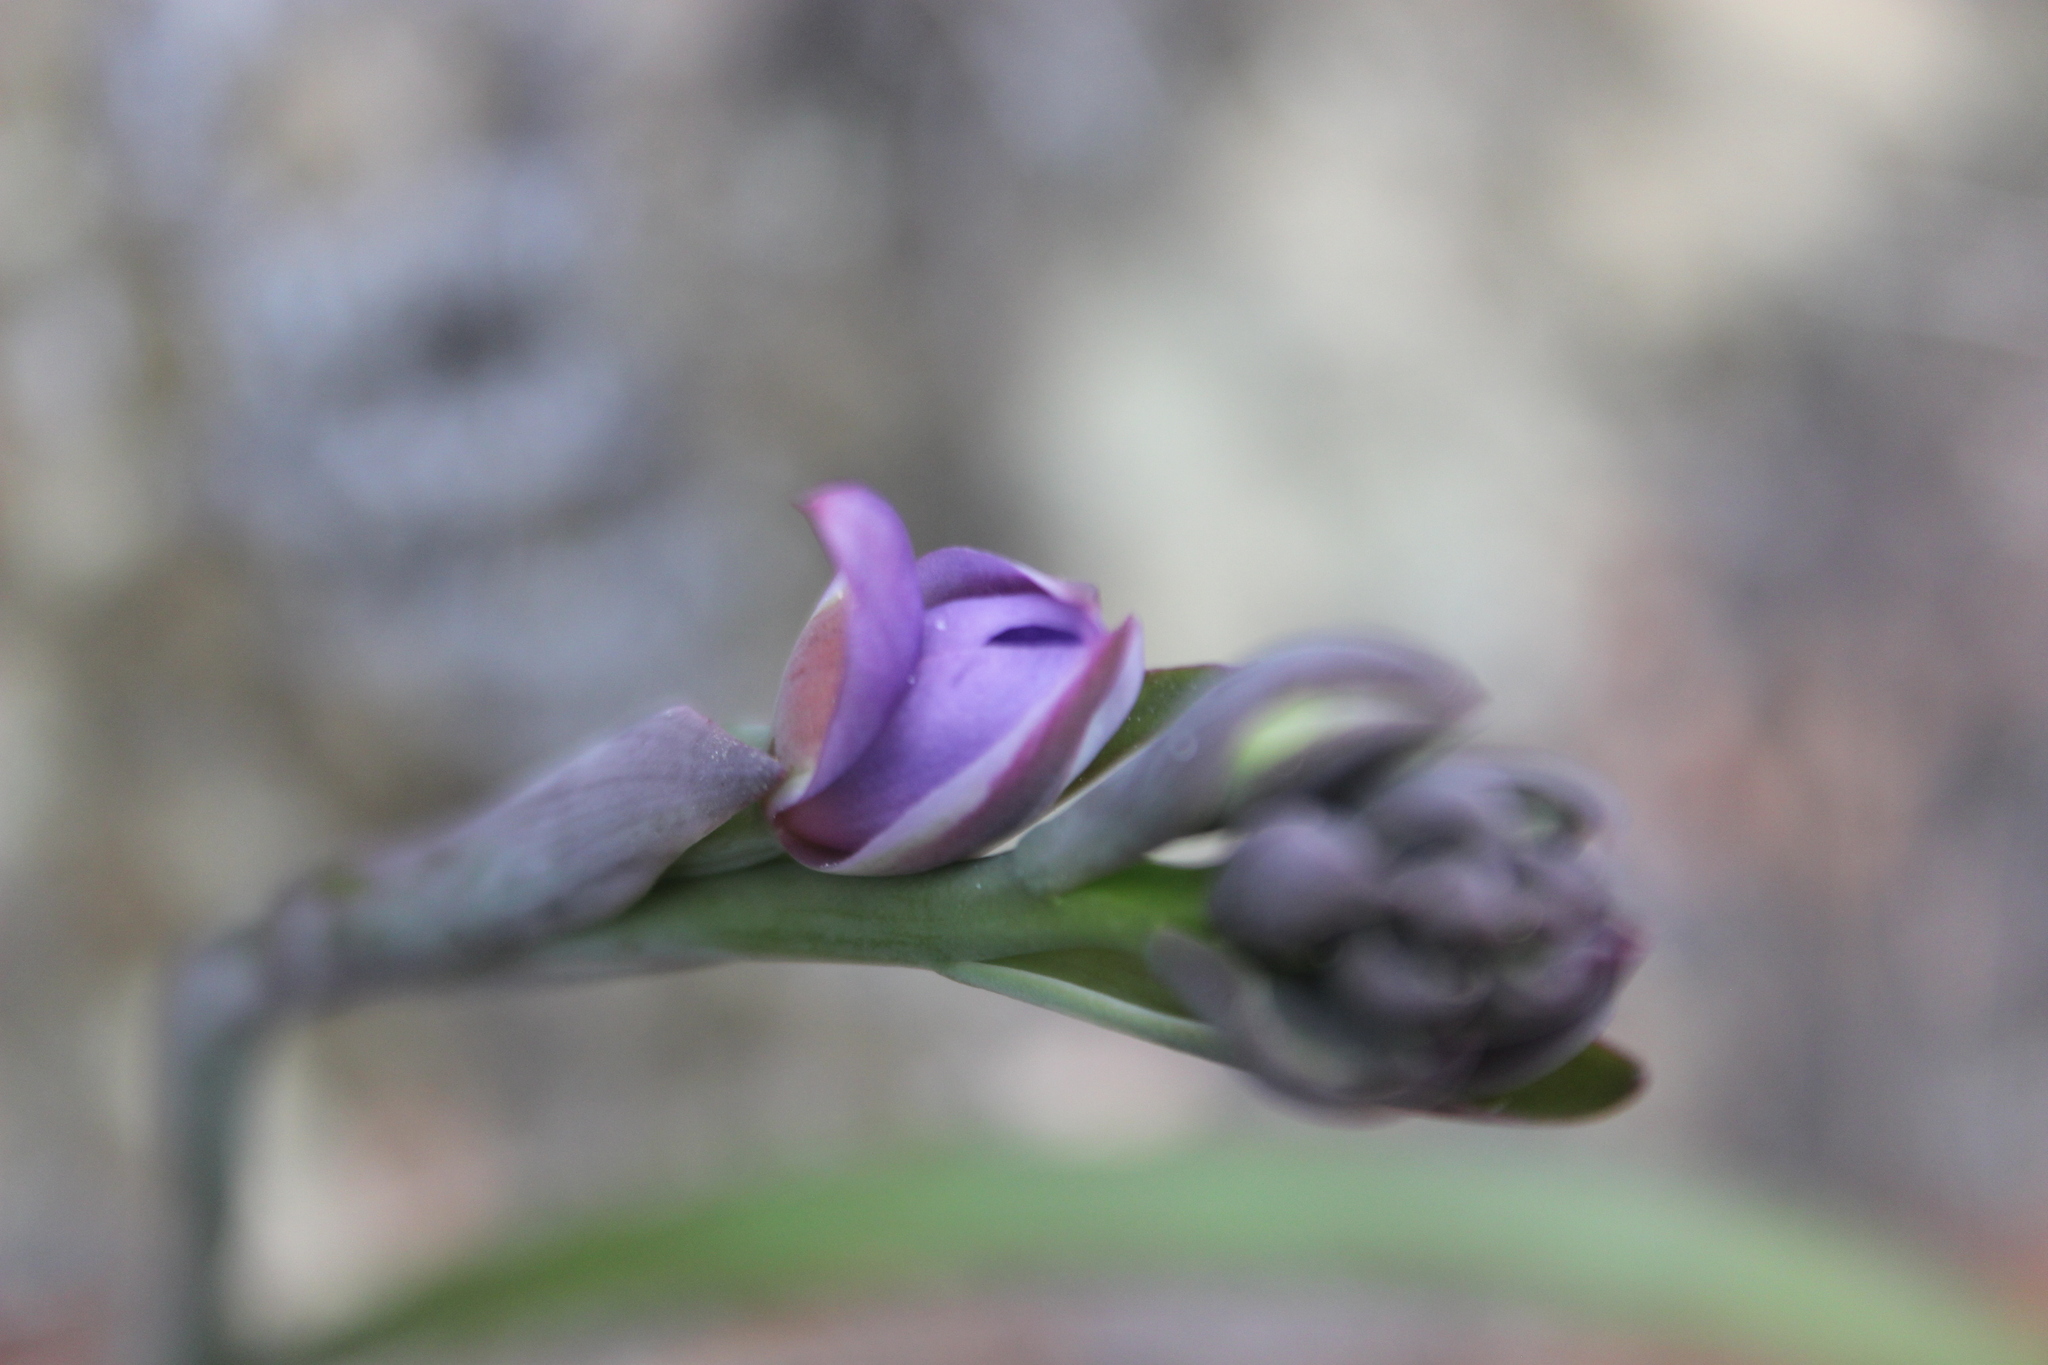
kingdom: Plantae
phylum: Tracheophyta
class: Liliopsida
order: Asparagales
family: Orchidaceae
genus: Thelymitra
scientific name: Thelymitra nervosa
